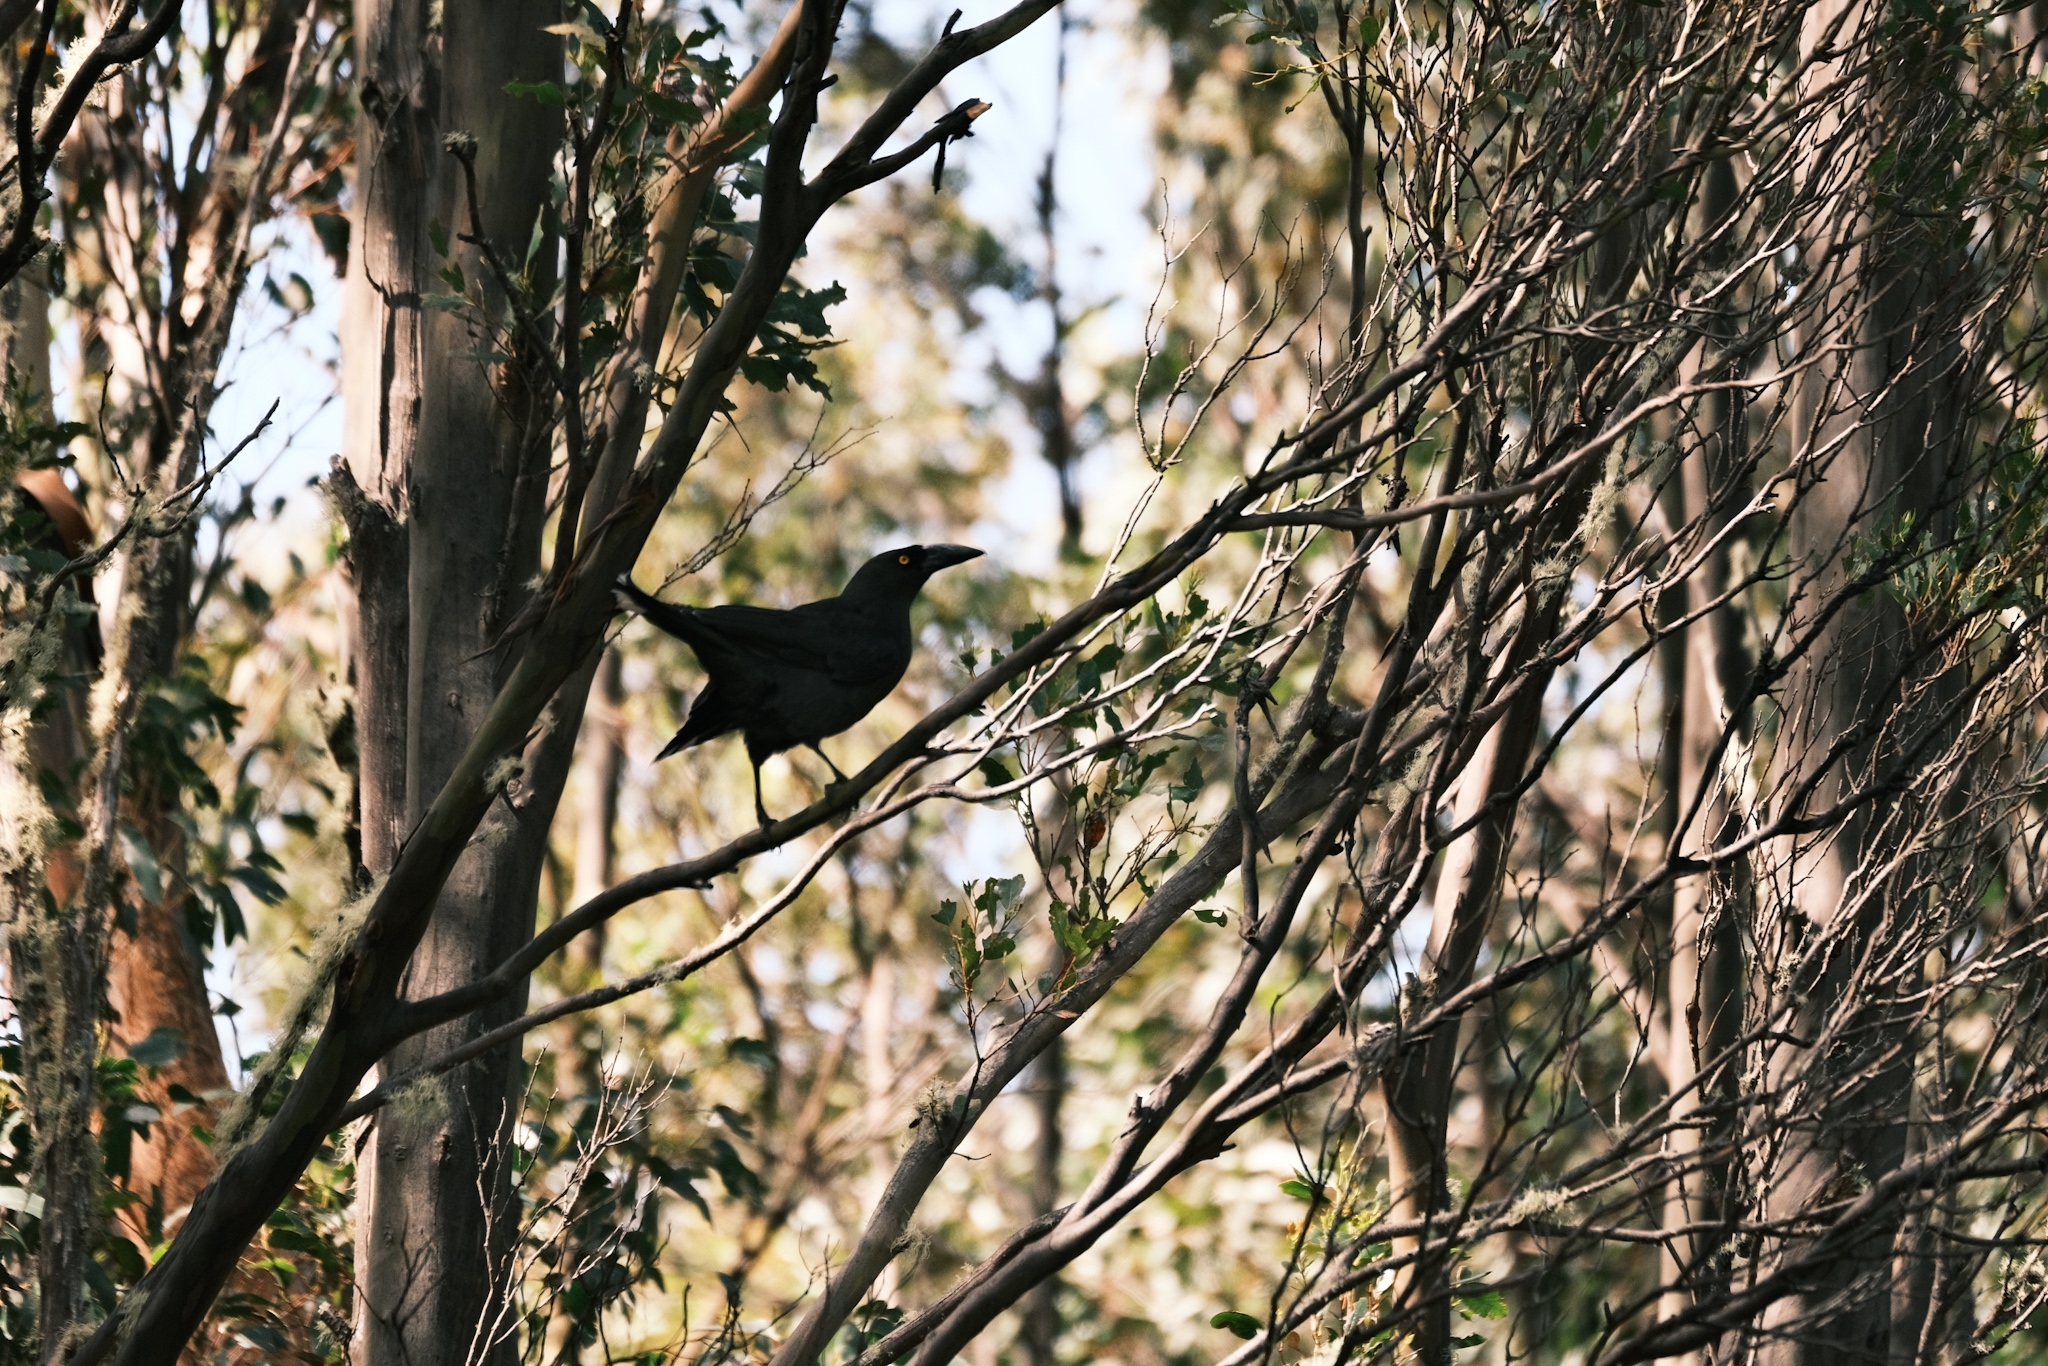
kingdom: Animalia
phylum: Chordata
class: Aves
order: Passeriformes
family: Cracticidae
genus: Strepera
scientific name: Strepera fuliginosa
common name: Black currawong
